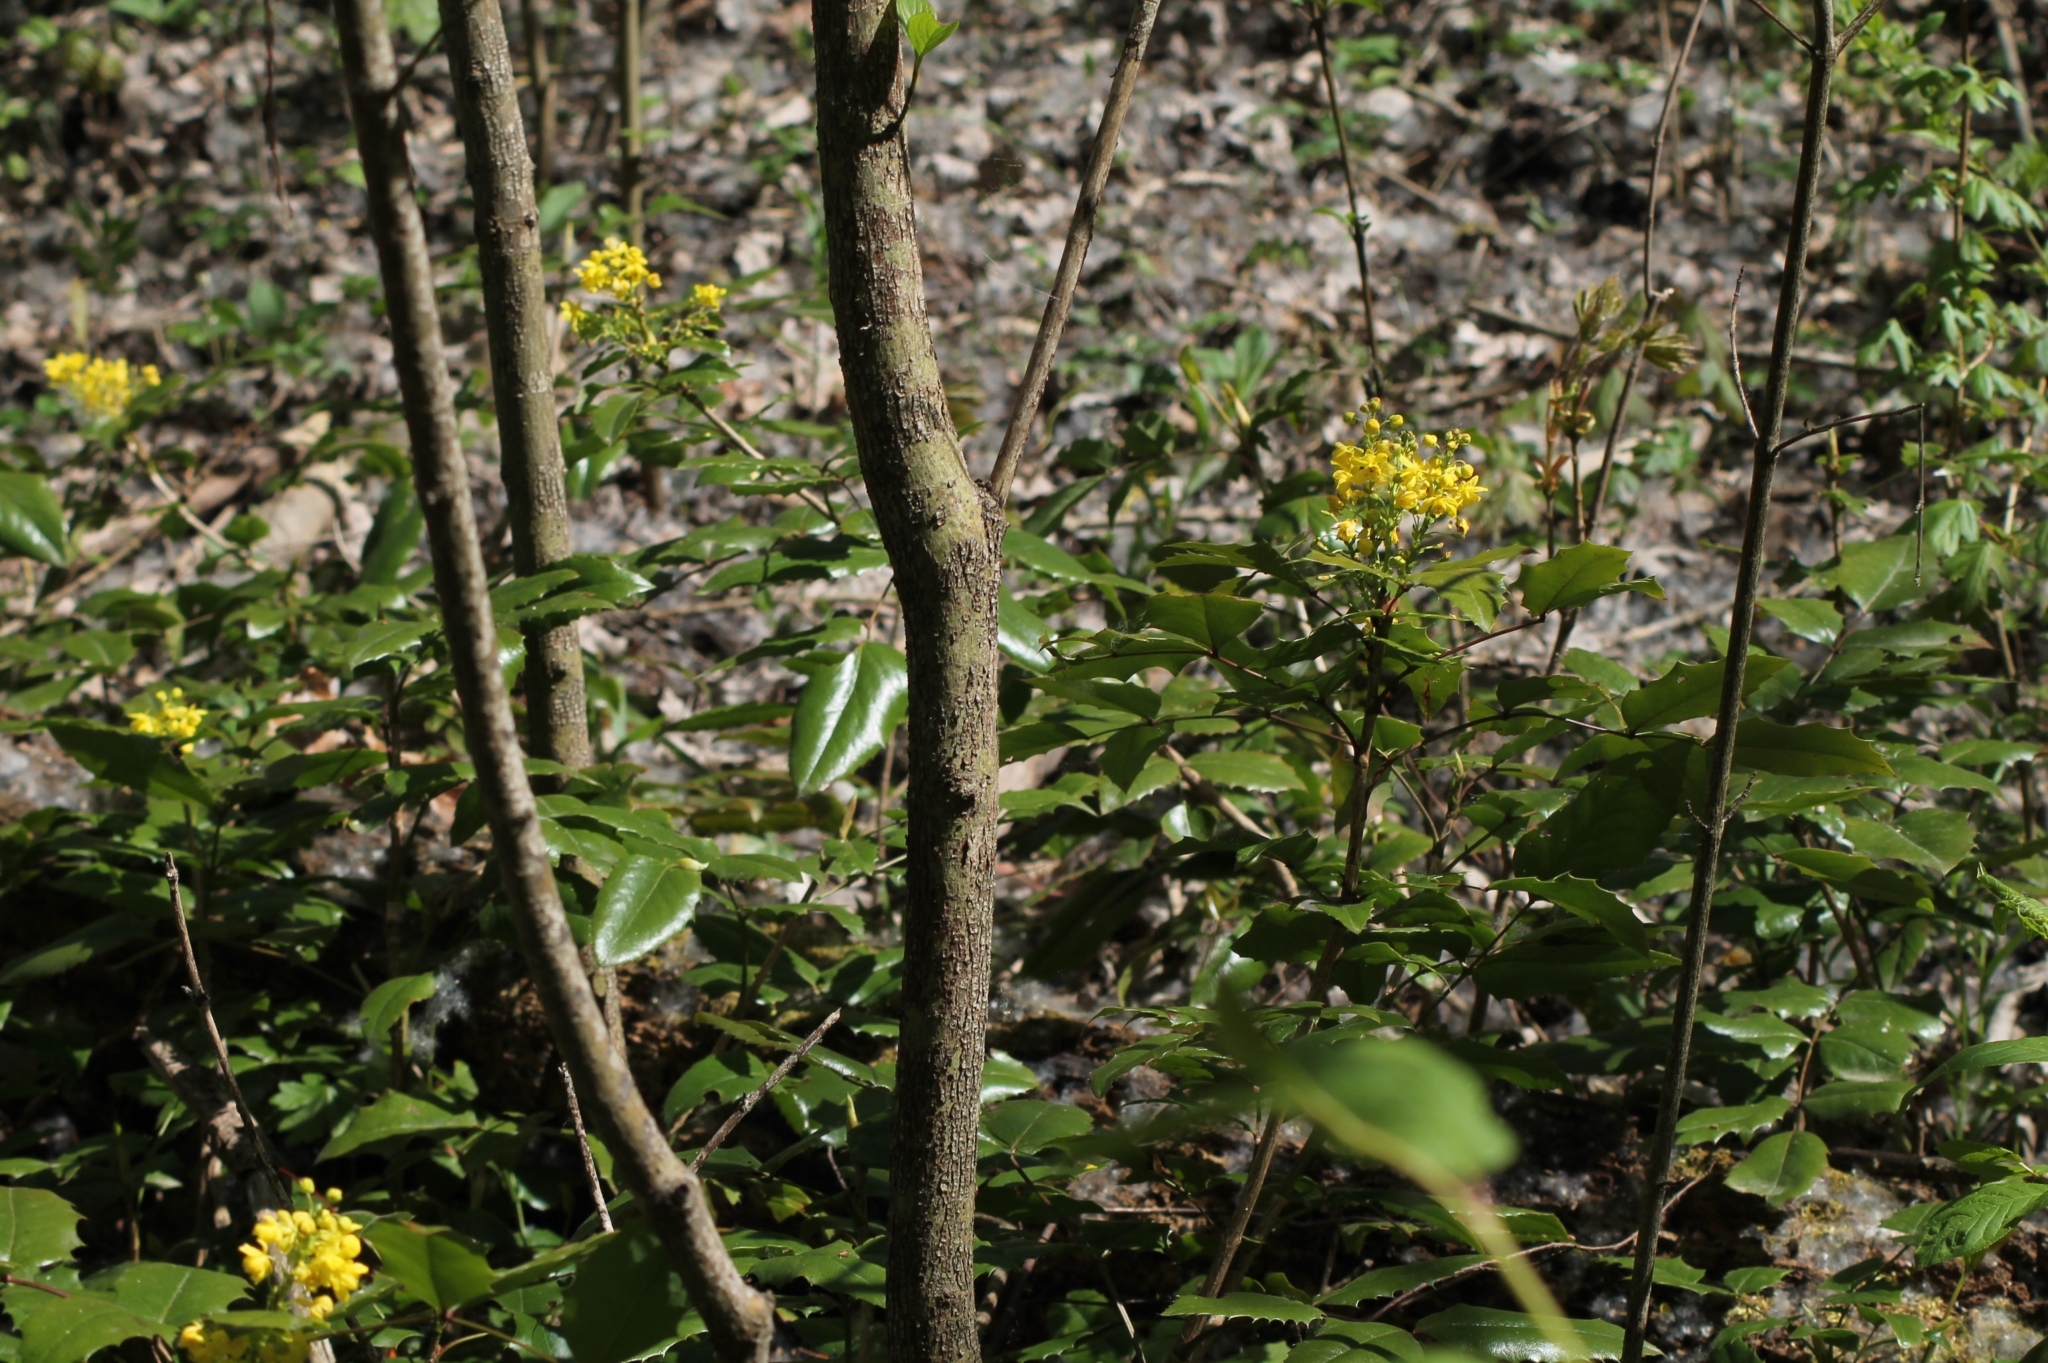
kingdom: Plantae
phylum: Tracheophyta
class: Magnoliopsida
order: Ranunculales
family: Berberidaceae
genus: Mahonia
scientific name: Mahonia aquifolium
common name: Oregon-grape
